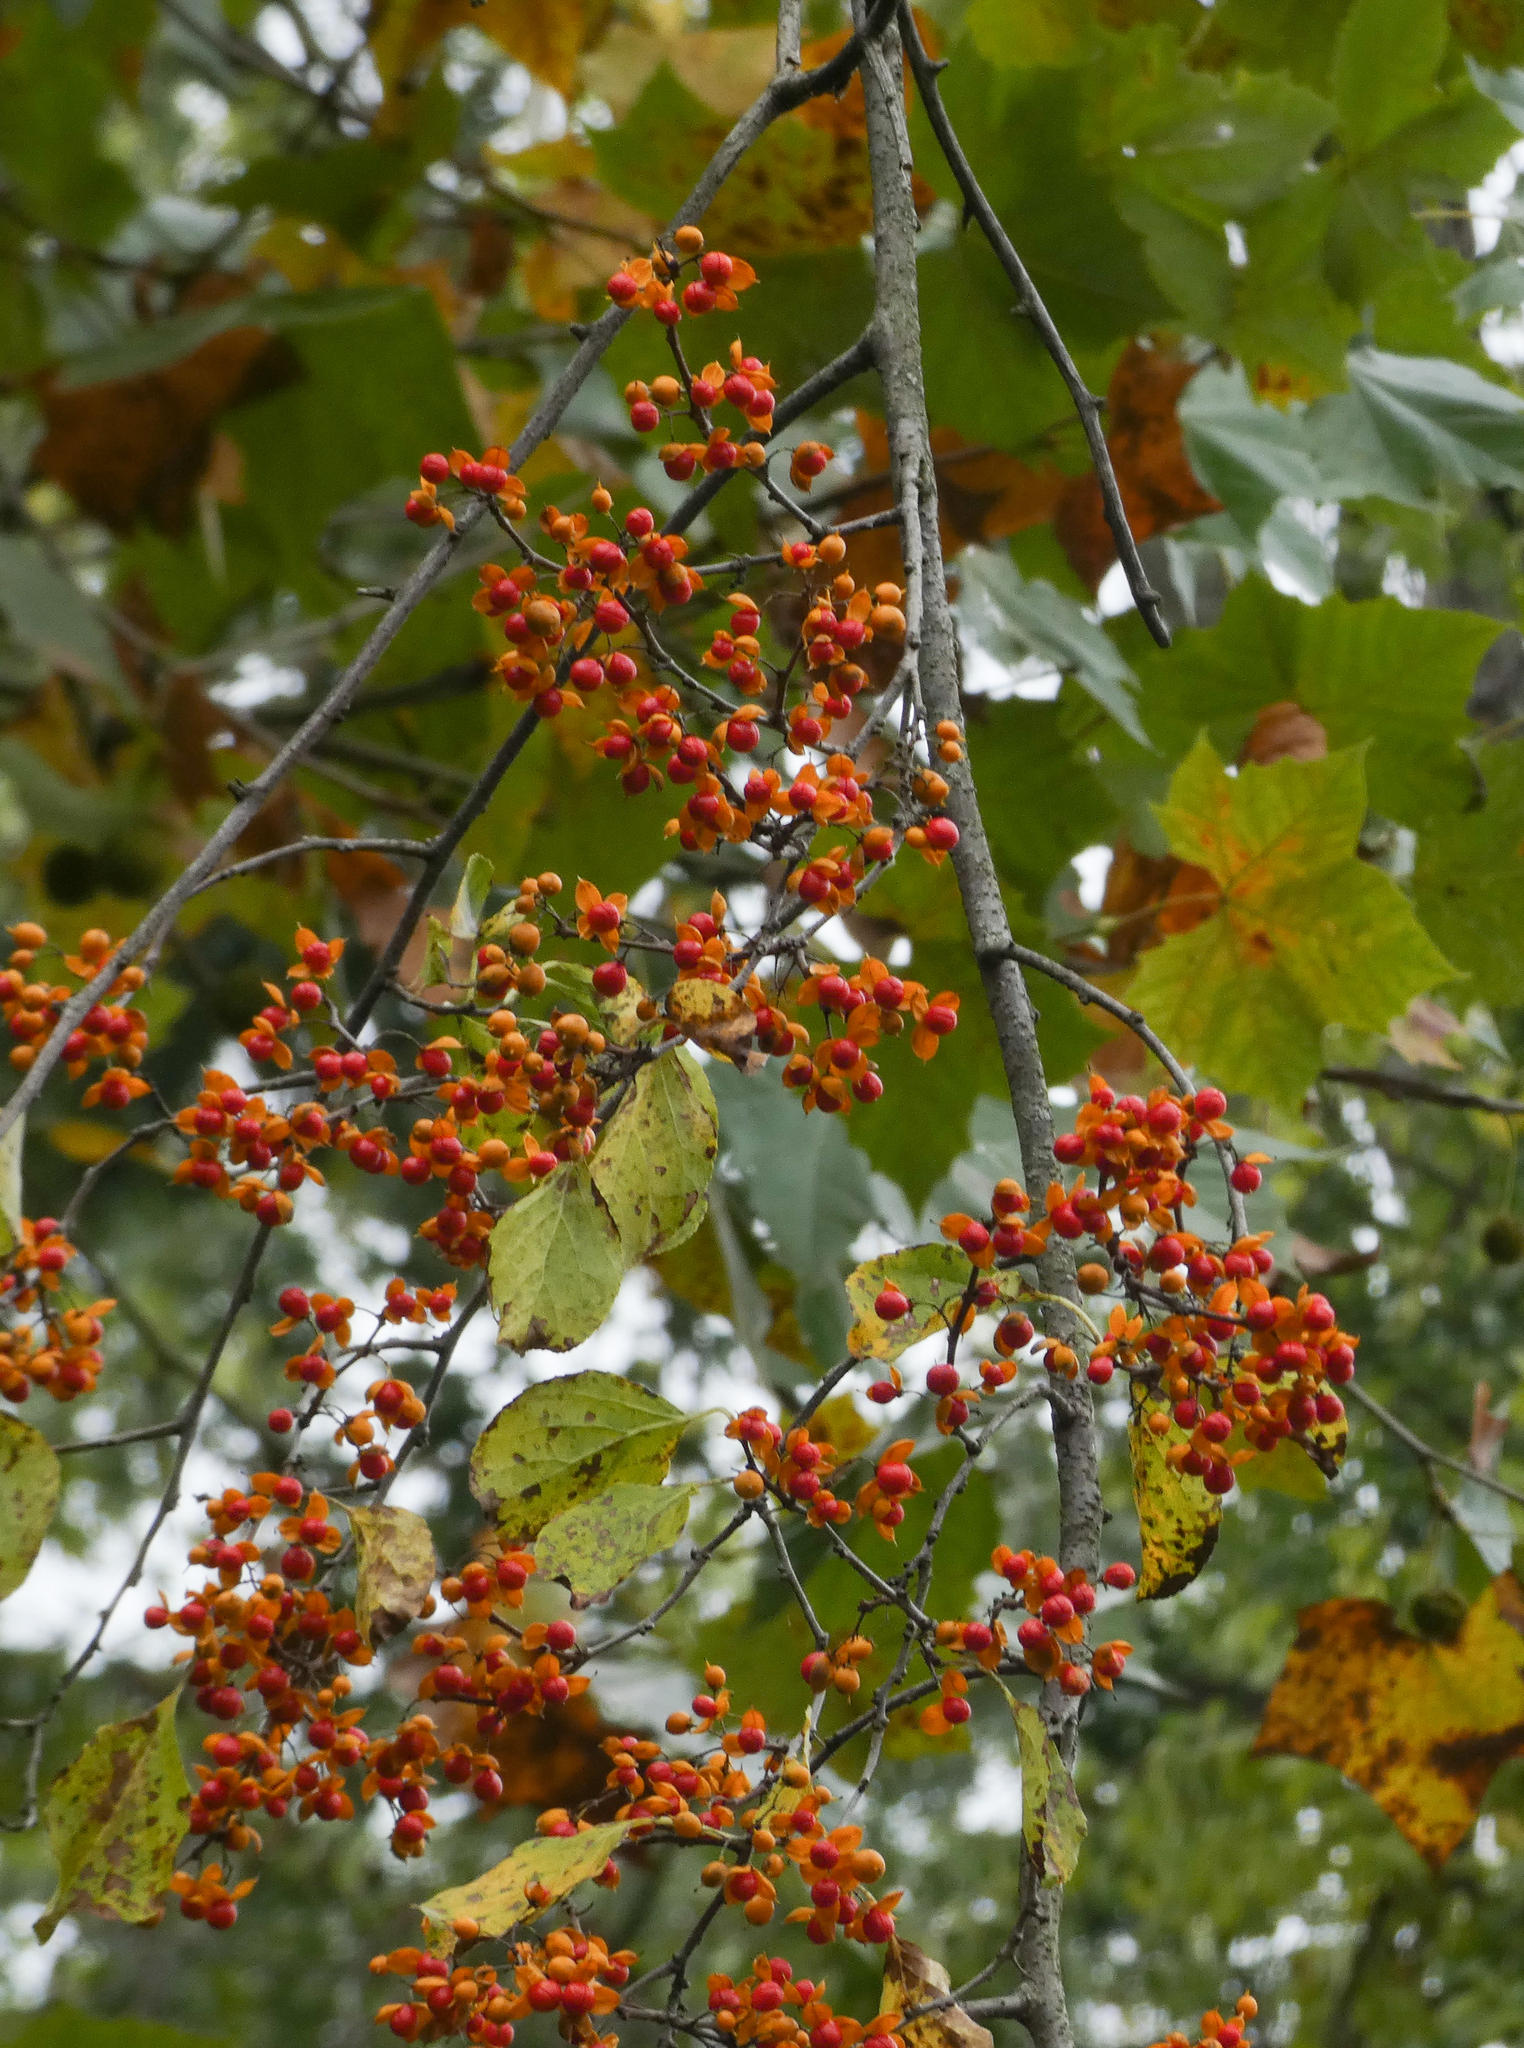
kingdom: Plantae
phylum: Tracheophyta
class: Magnoliopsida
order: Celastrales
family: Celastraceae
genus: Celastrus
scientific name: Celastrus orbiculatus
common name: Oriental bittersweet
